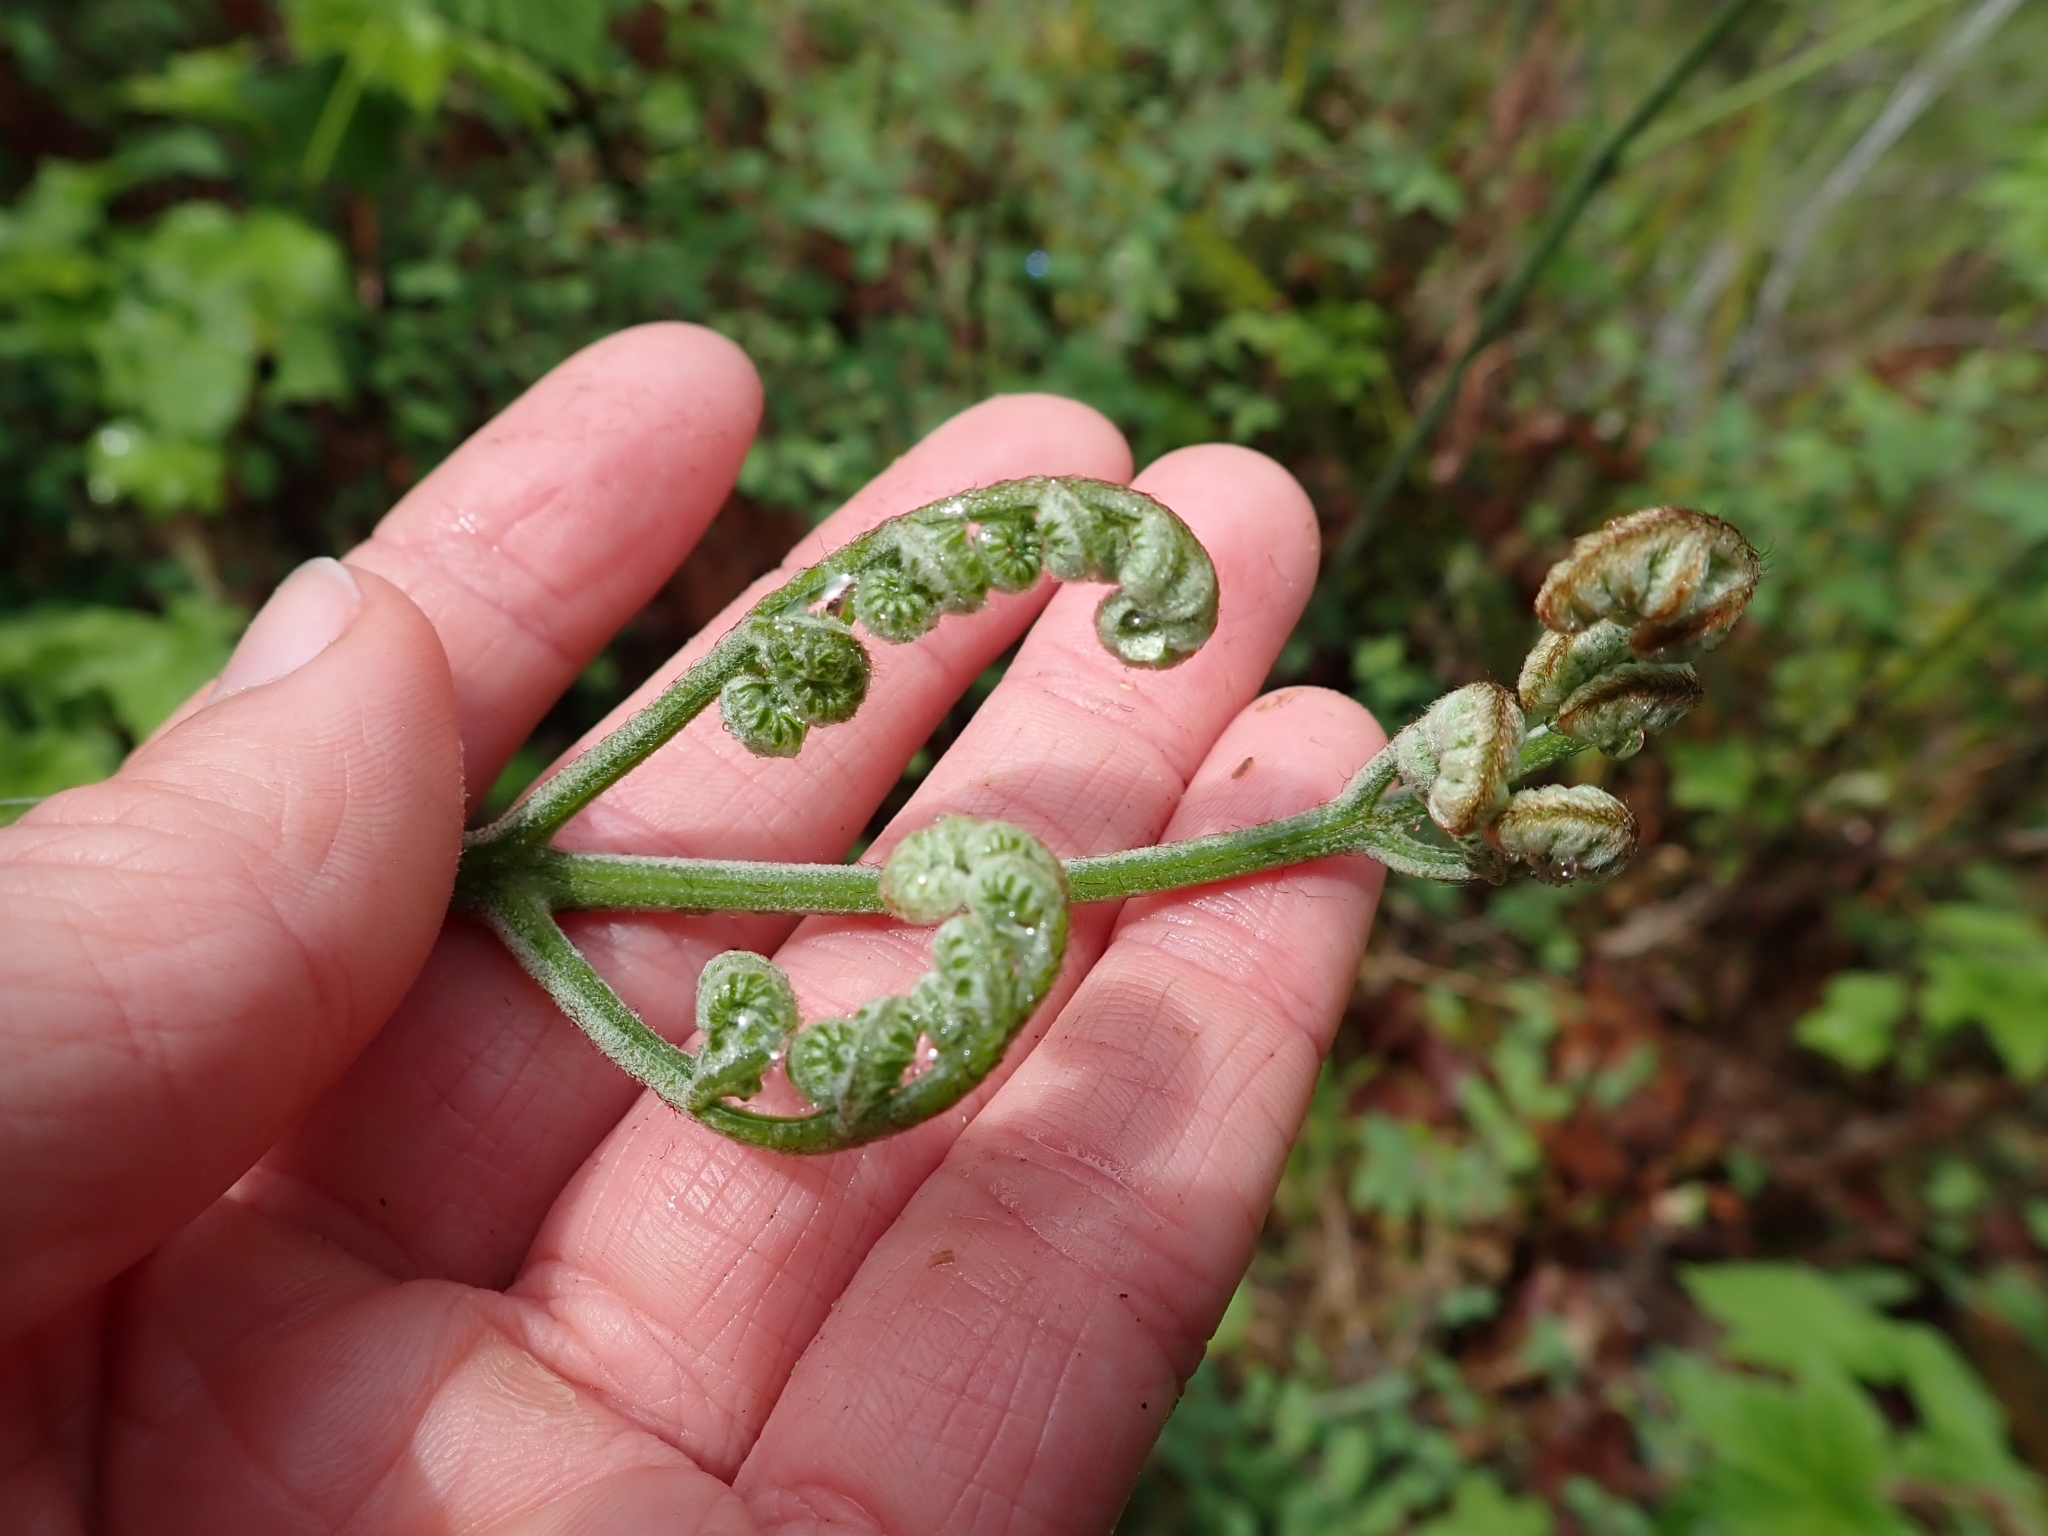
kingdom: Plantae
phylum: Tracheophyta
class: Polypodiopsida
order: Polypodiales
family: Dennstaedtiaceae
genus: Pteridium
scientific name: Pteridium aquilinum
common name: Bracken
